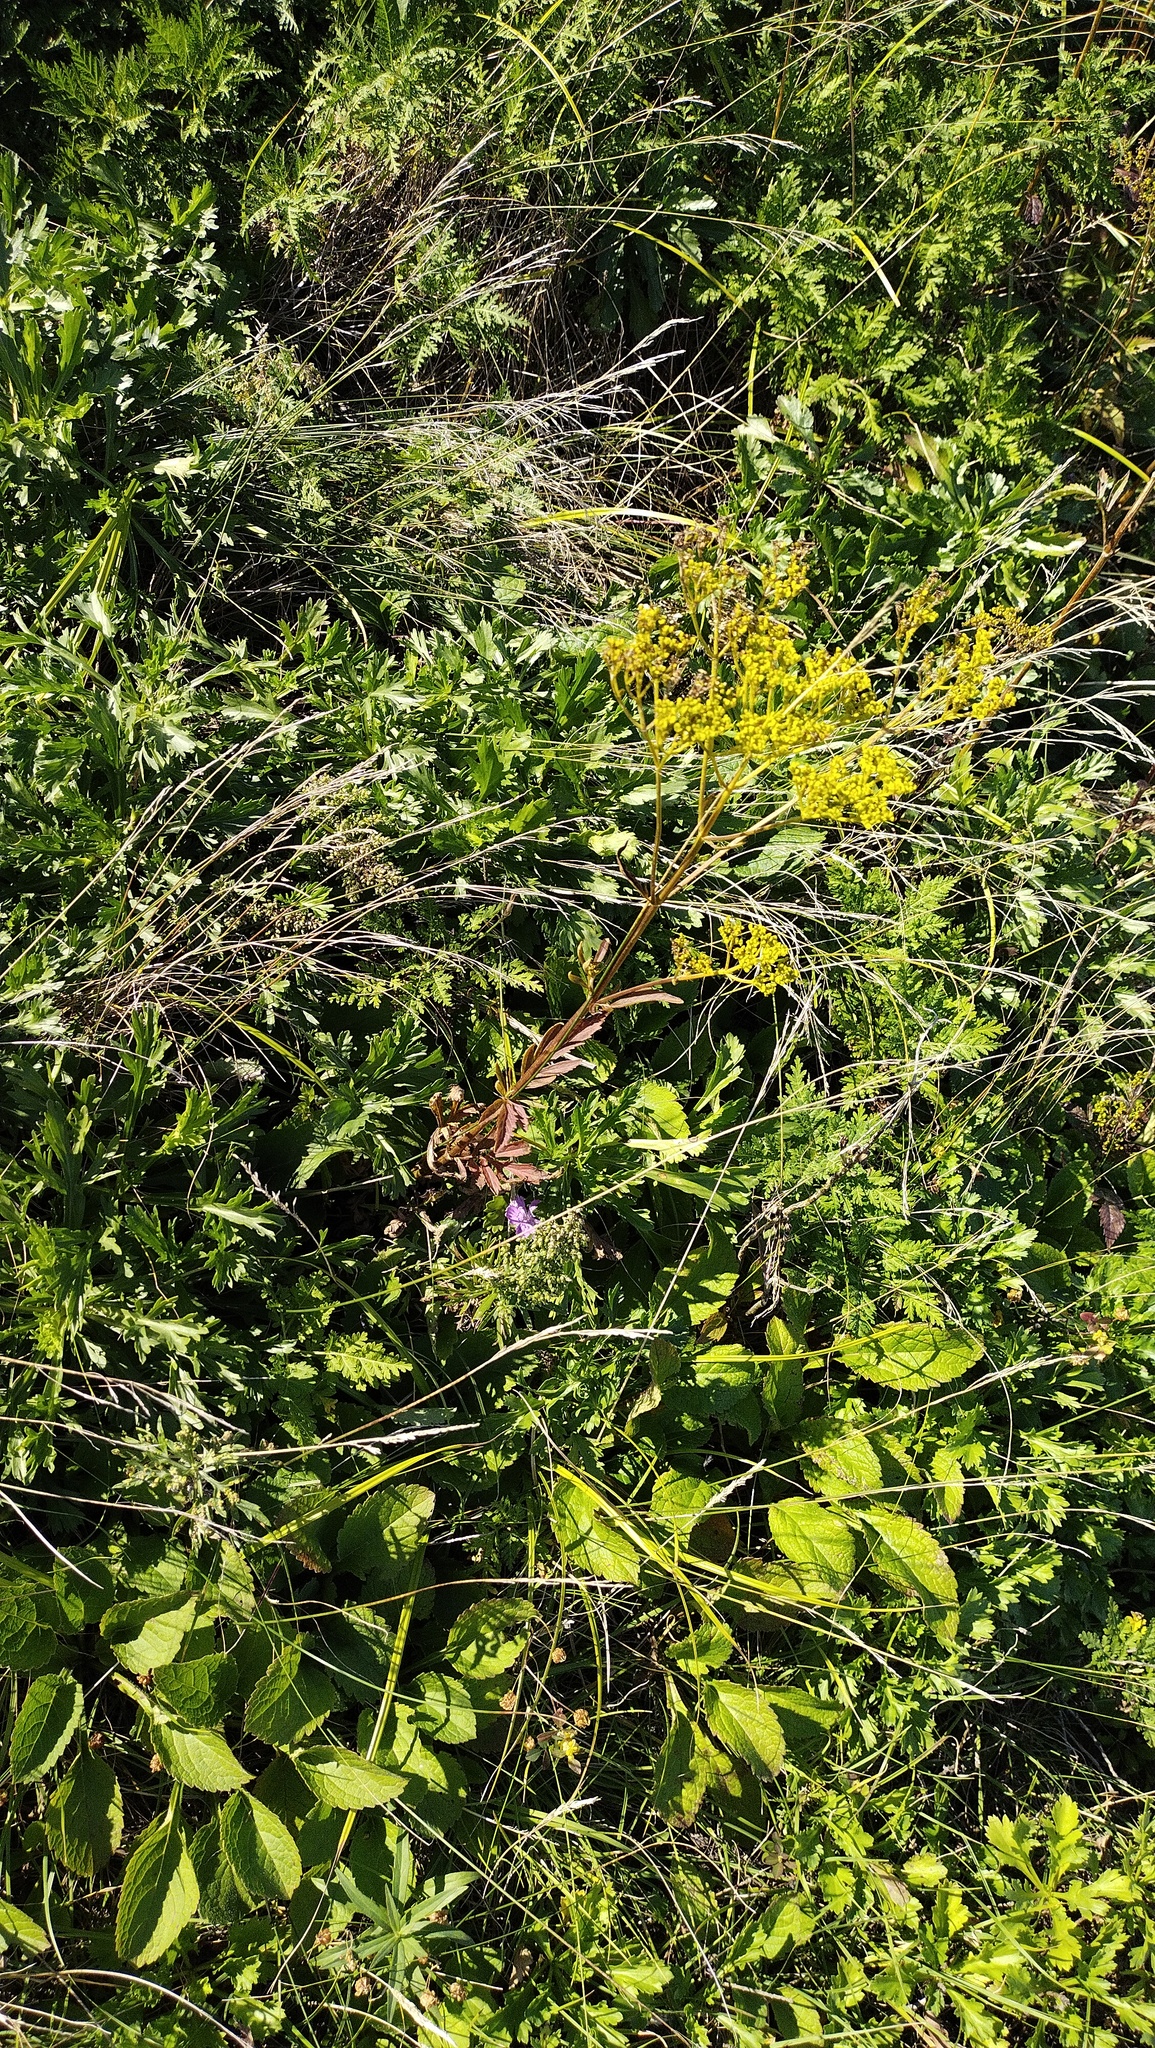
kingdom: Plantae
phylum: Tracheophyta
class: Magnoliopsida
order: Dipsacales
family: Caprifoliaceae
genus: Patrinia
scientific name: Patrinia scabiosifolia
